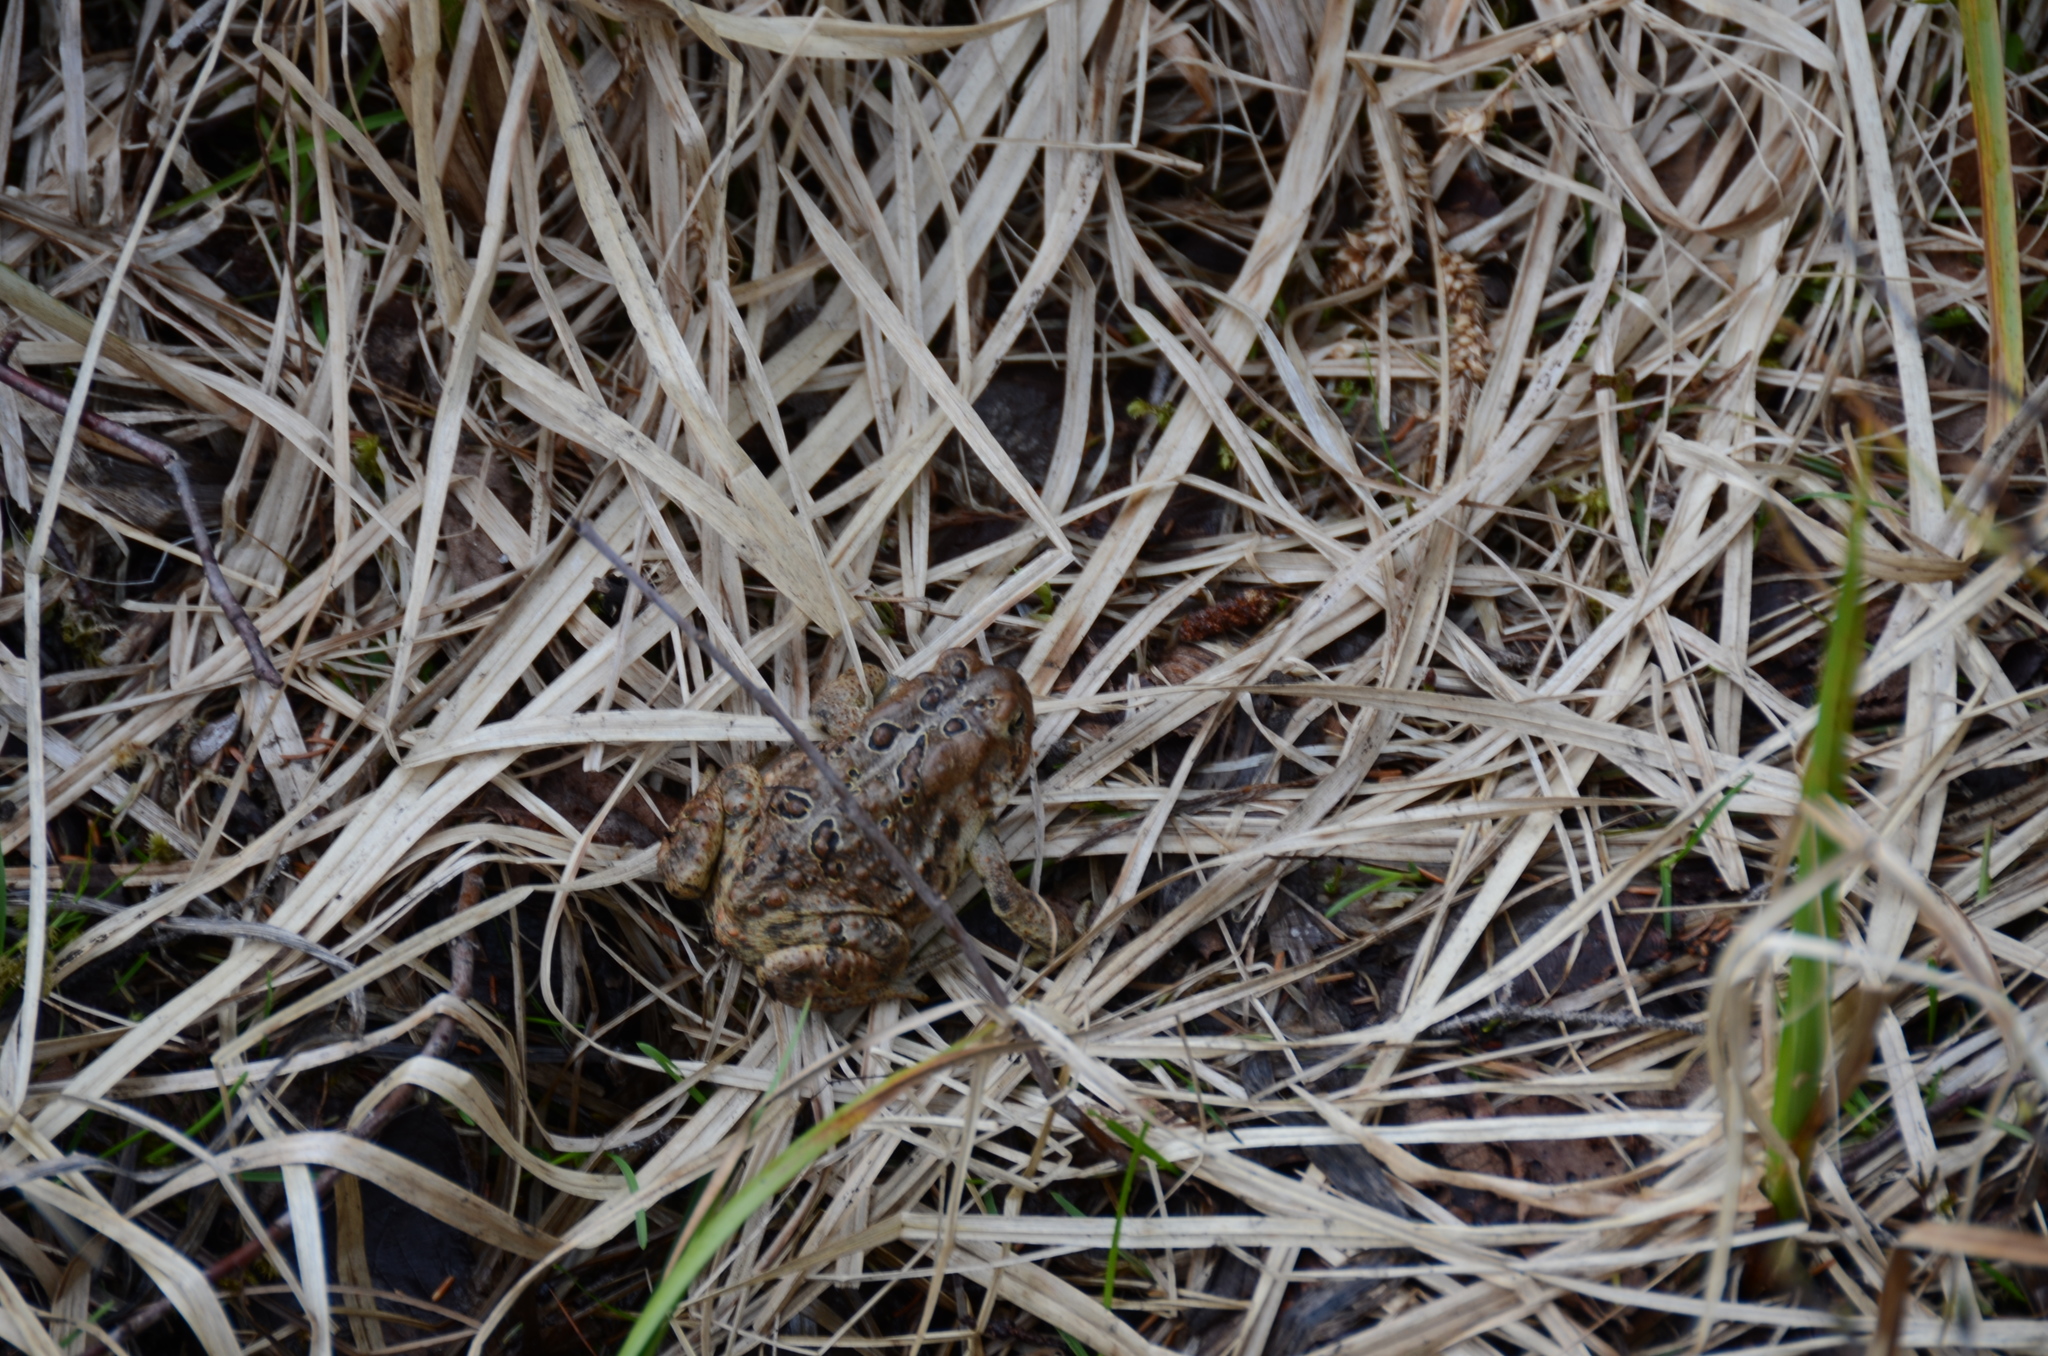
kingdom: Animalia
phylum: Chordata
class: Amphibia
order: Anura
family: Bufonidae
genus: Anaxyrus
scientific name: Anaxyrus americanus
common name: American toad
